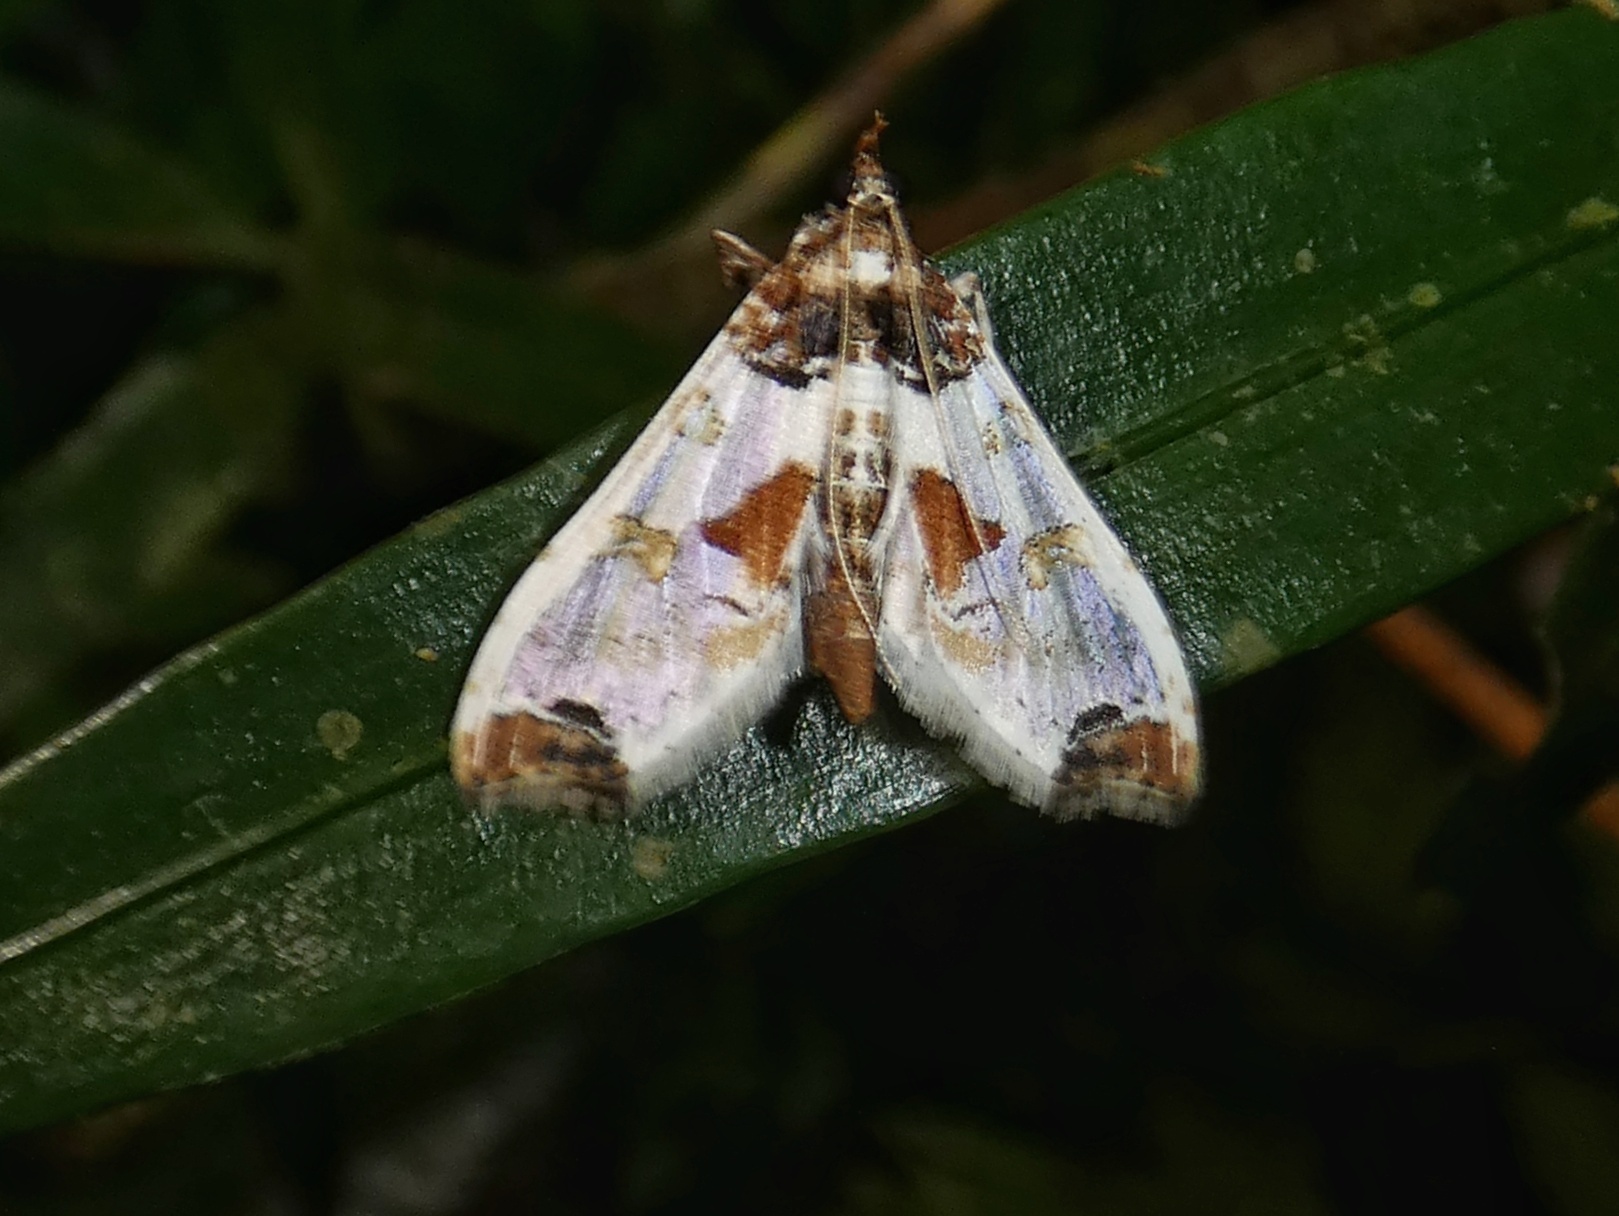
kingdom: Animalia
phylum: Arthropoda
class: Insecta
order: Lepidoptera
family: Crambidae
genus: Neoleucinodes
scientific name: Neoleucinodes elegantalis
